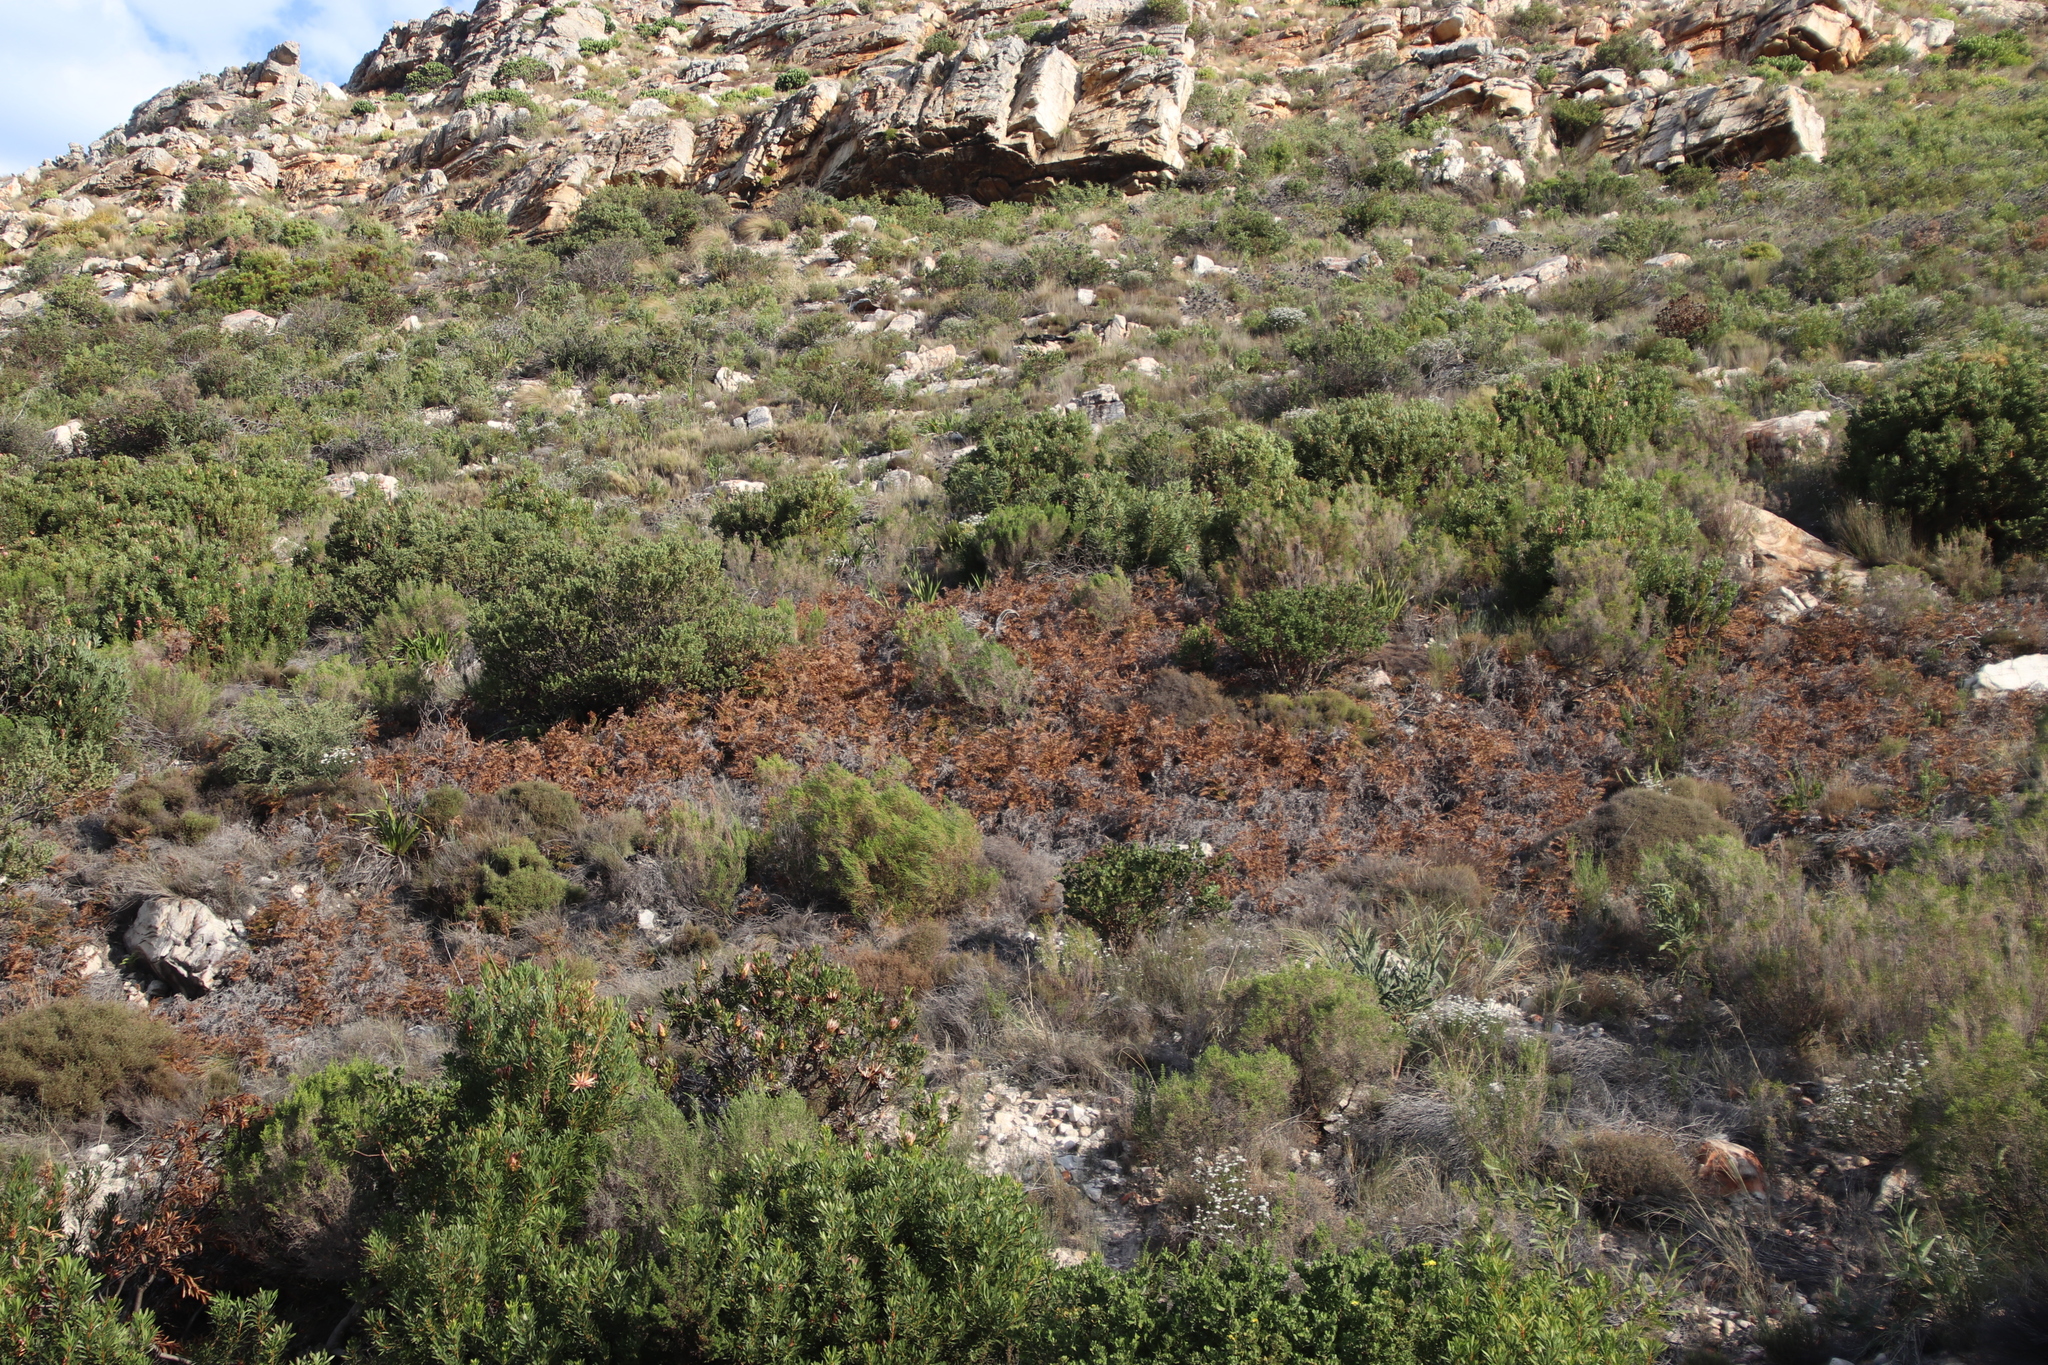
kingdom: Plantae
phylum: Tracheophyta
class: Polypodiopsida
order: Polypodiales
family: Dennstaedtiaceae
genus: Pteridium
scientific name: Pteridium aquilinum
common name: Bracken
